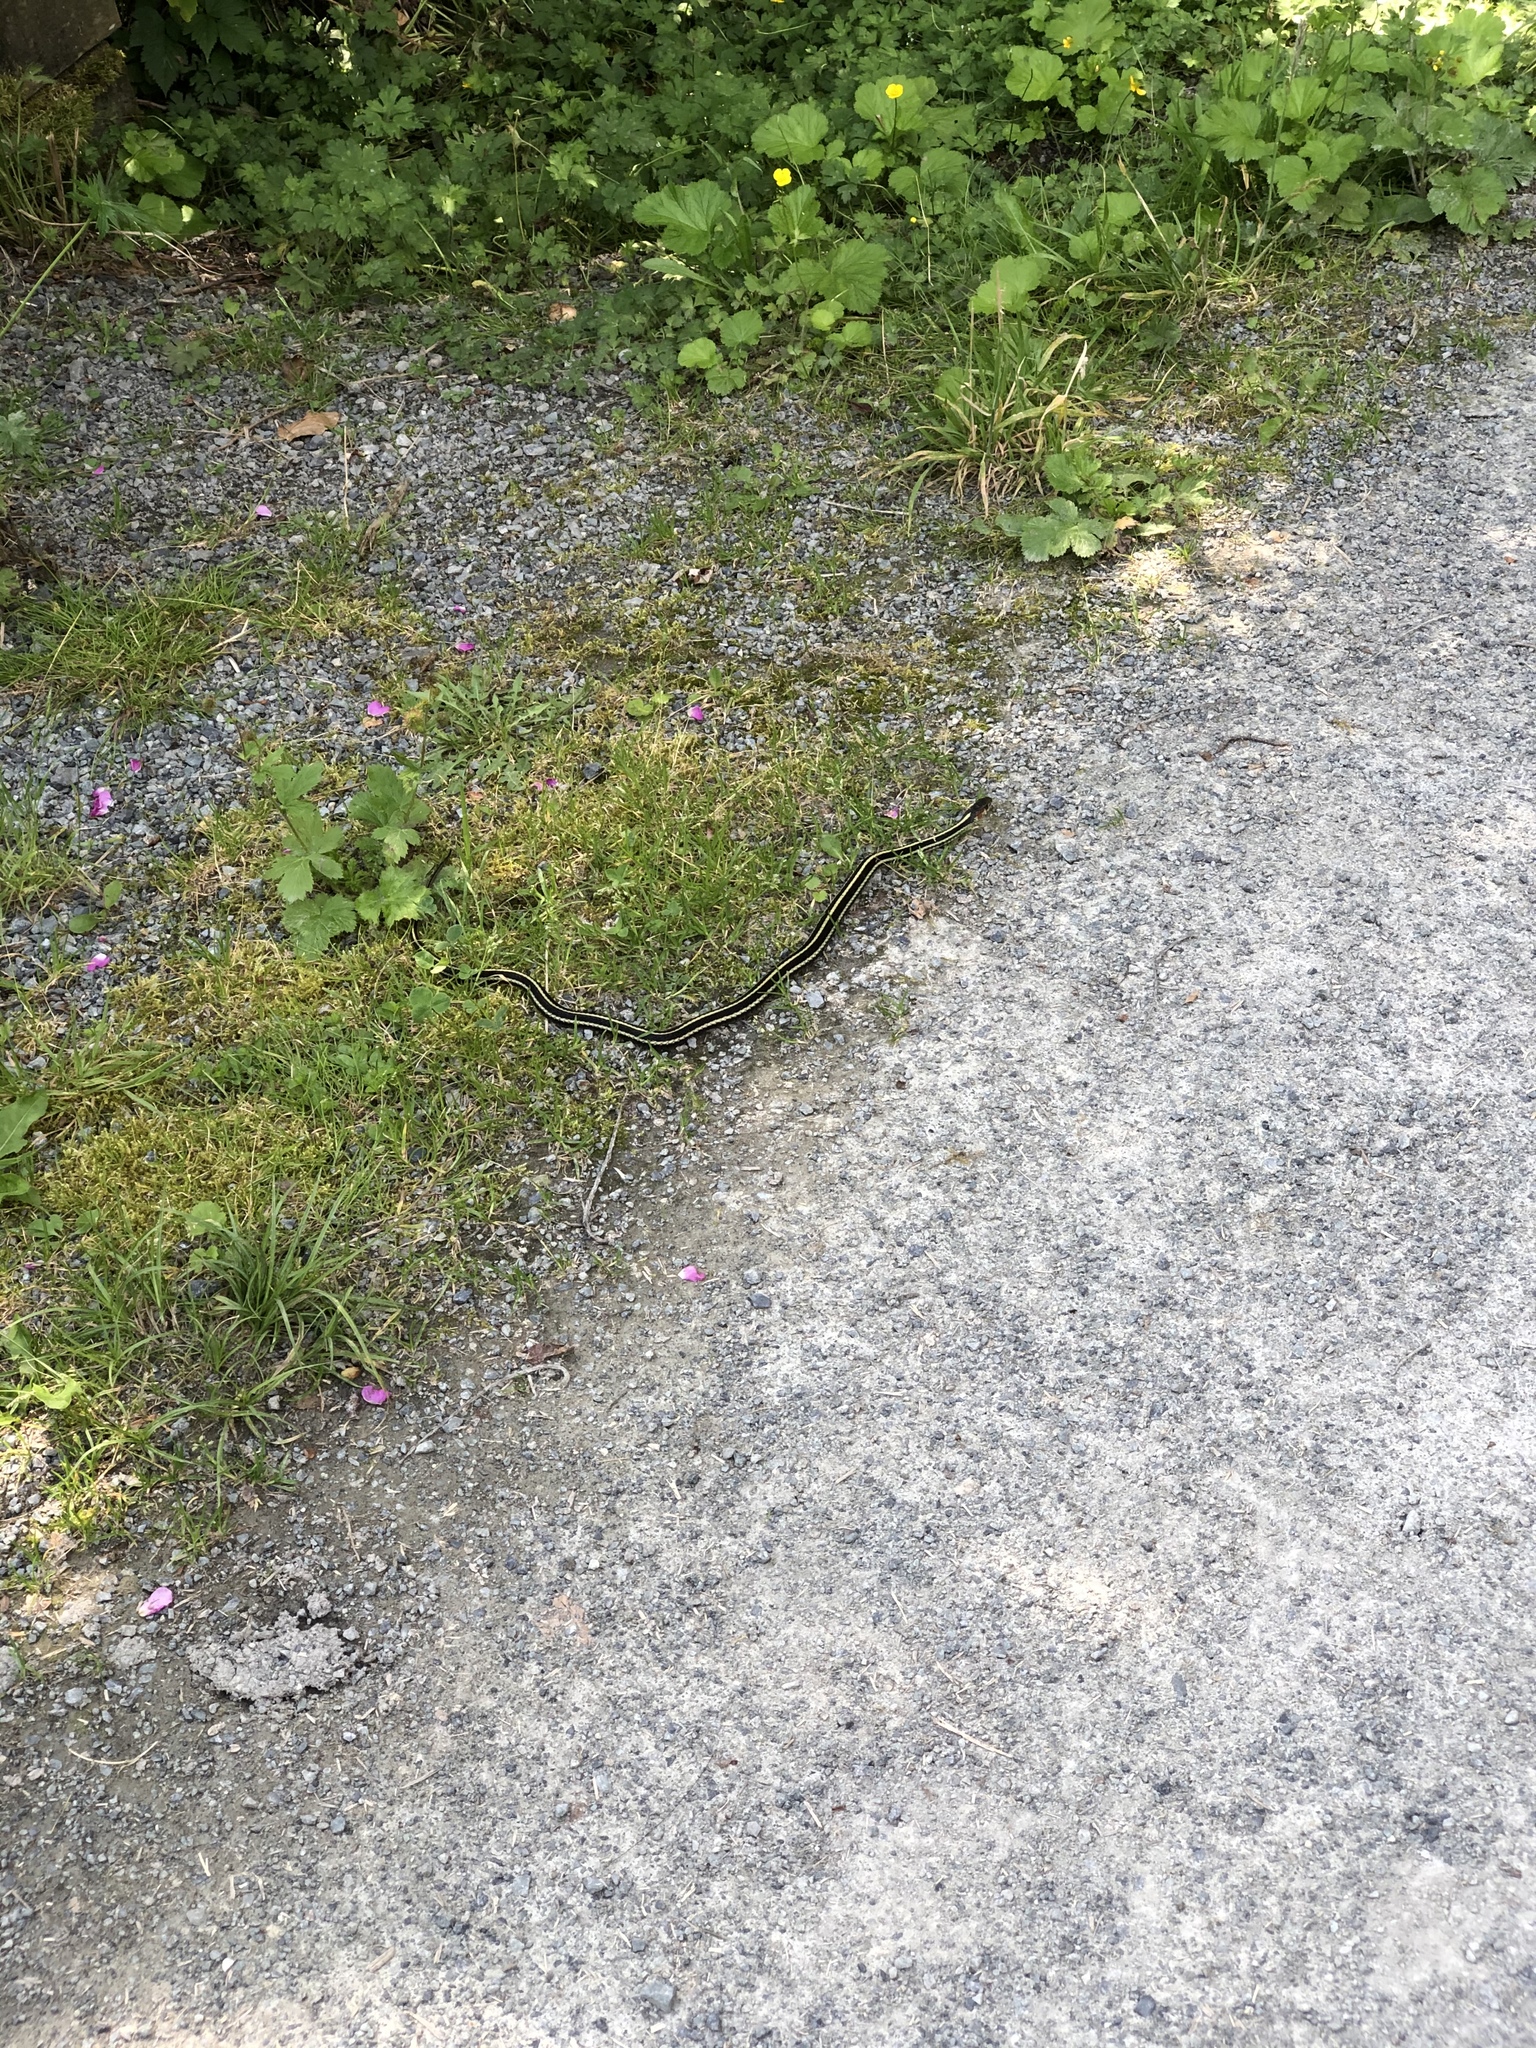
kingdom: Animalia
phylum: Chordata
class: Squamata
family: Colubridae
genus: Thamnophis
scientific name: Thamnophis sirtalis
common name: Common garter snake
